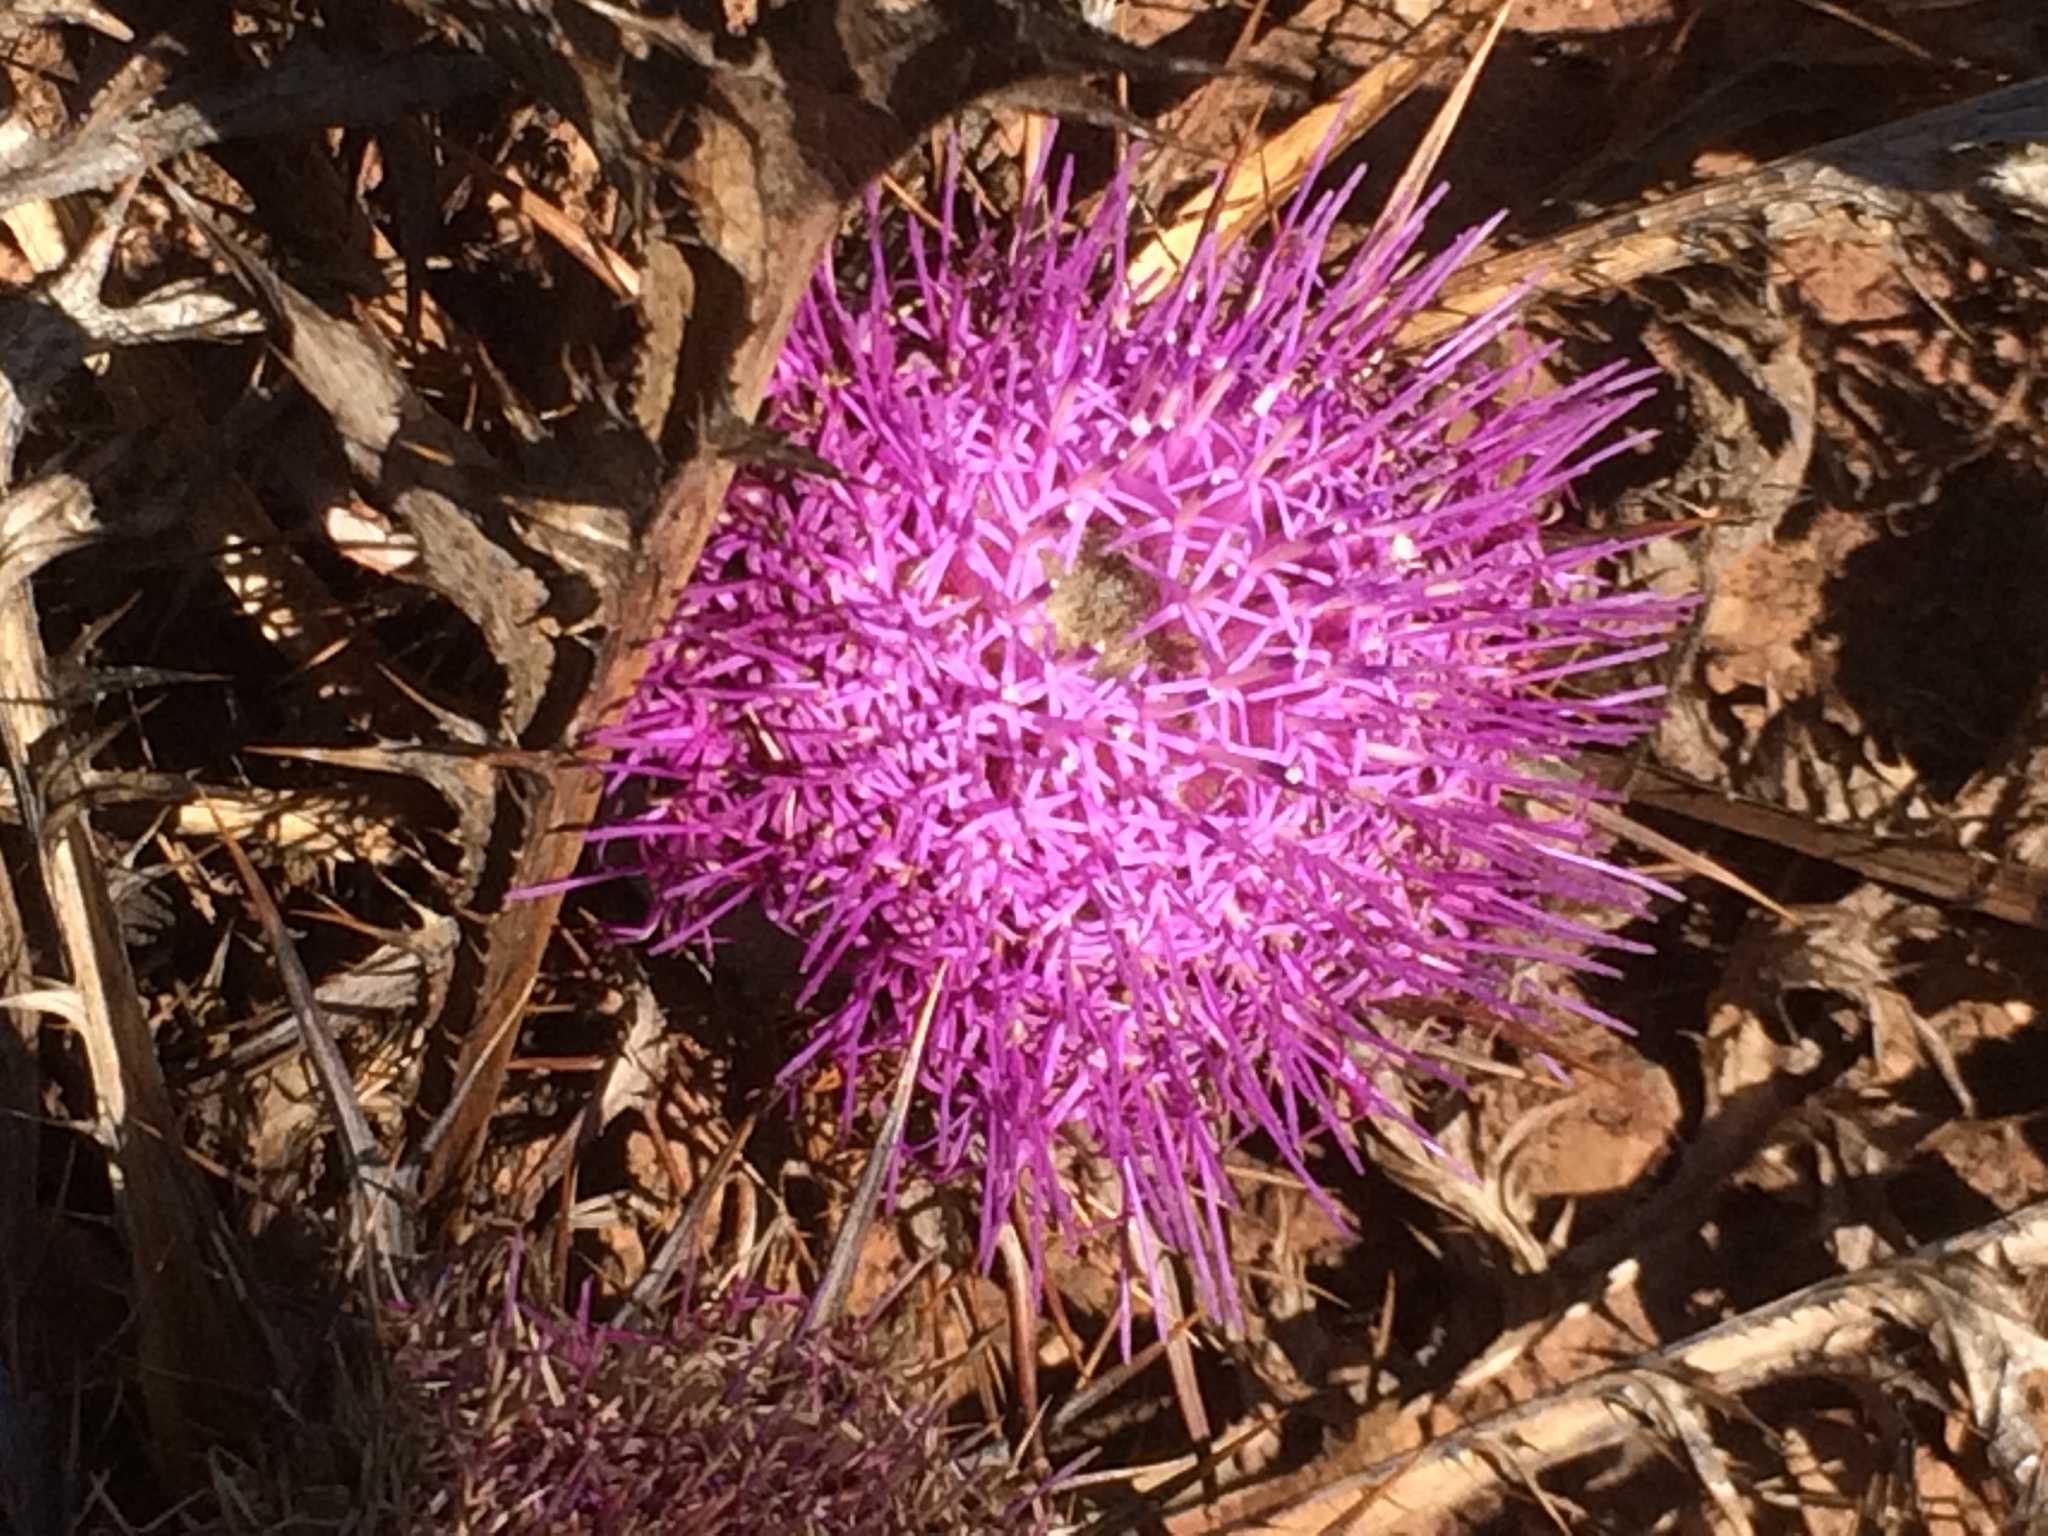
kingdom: Plantae
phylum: Tracheophyta
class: Magnoliopsida
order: Asterales
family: Asteraceae
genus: Chamaeleon
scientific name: Chamaeleon gummifer
